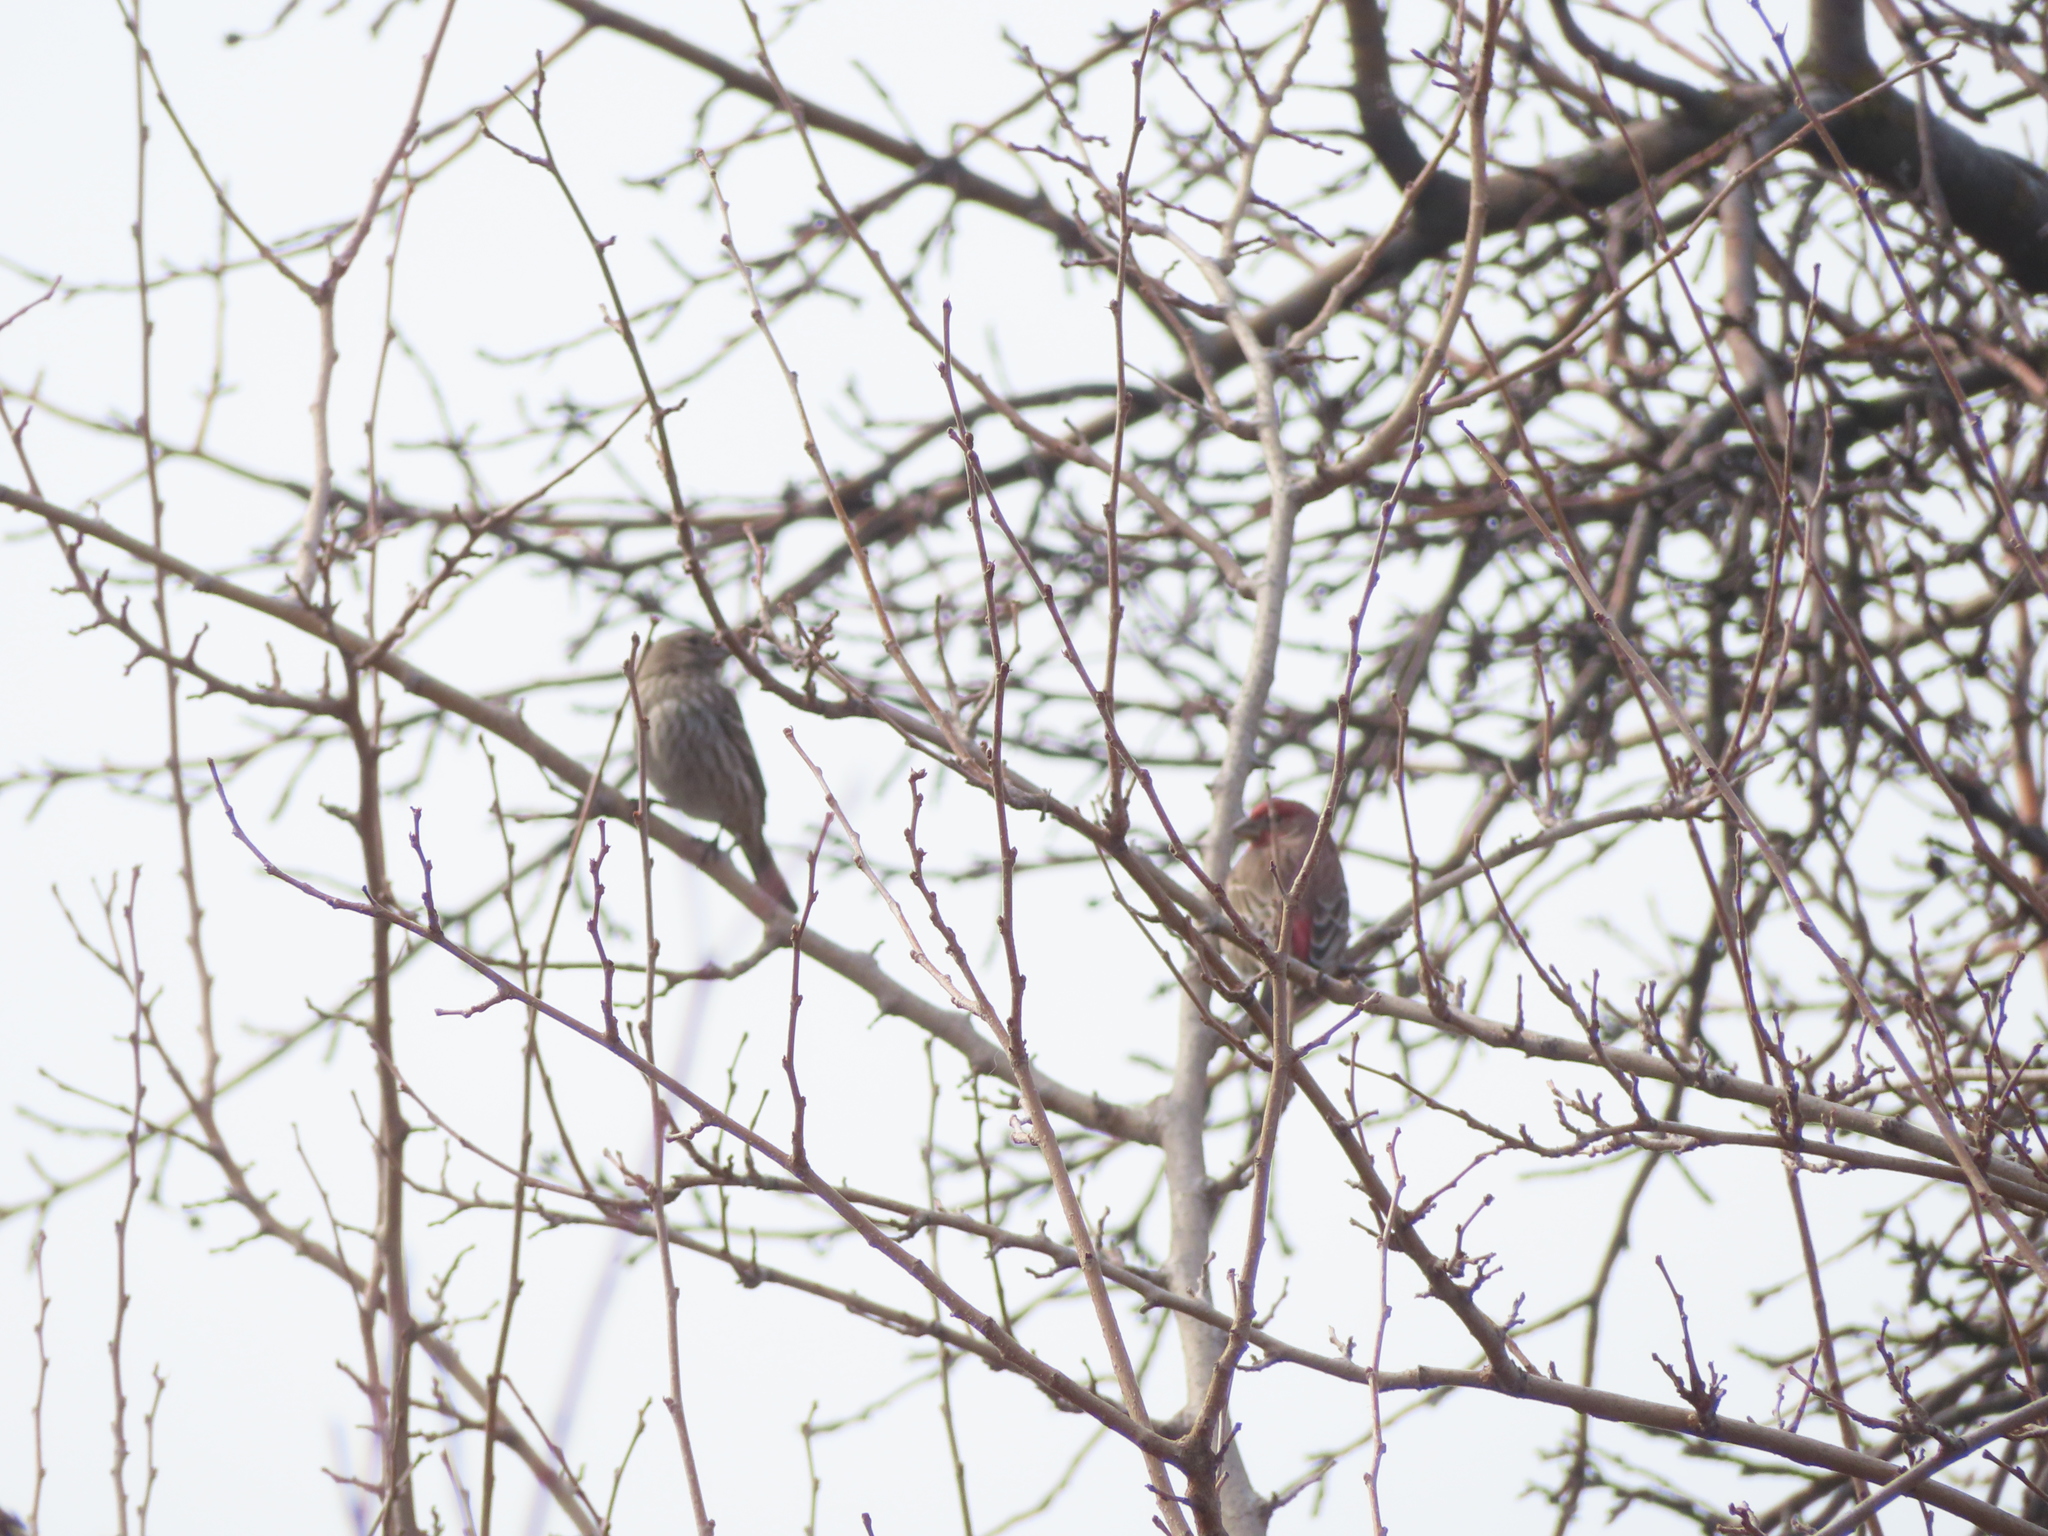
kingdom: Animalia
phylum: Chordata
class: Aves
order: Passeriformes
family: Fringillidae
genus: Haemorhous
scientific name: Haemorhous mexicanus
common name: House finch
